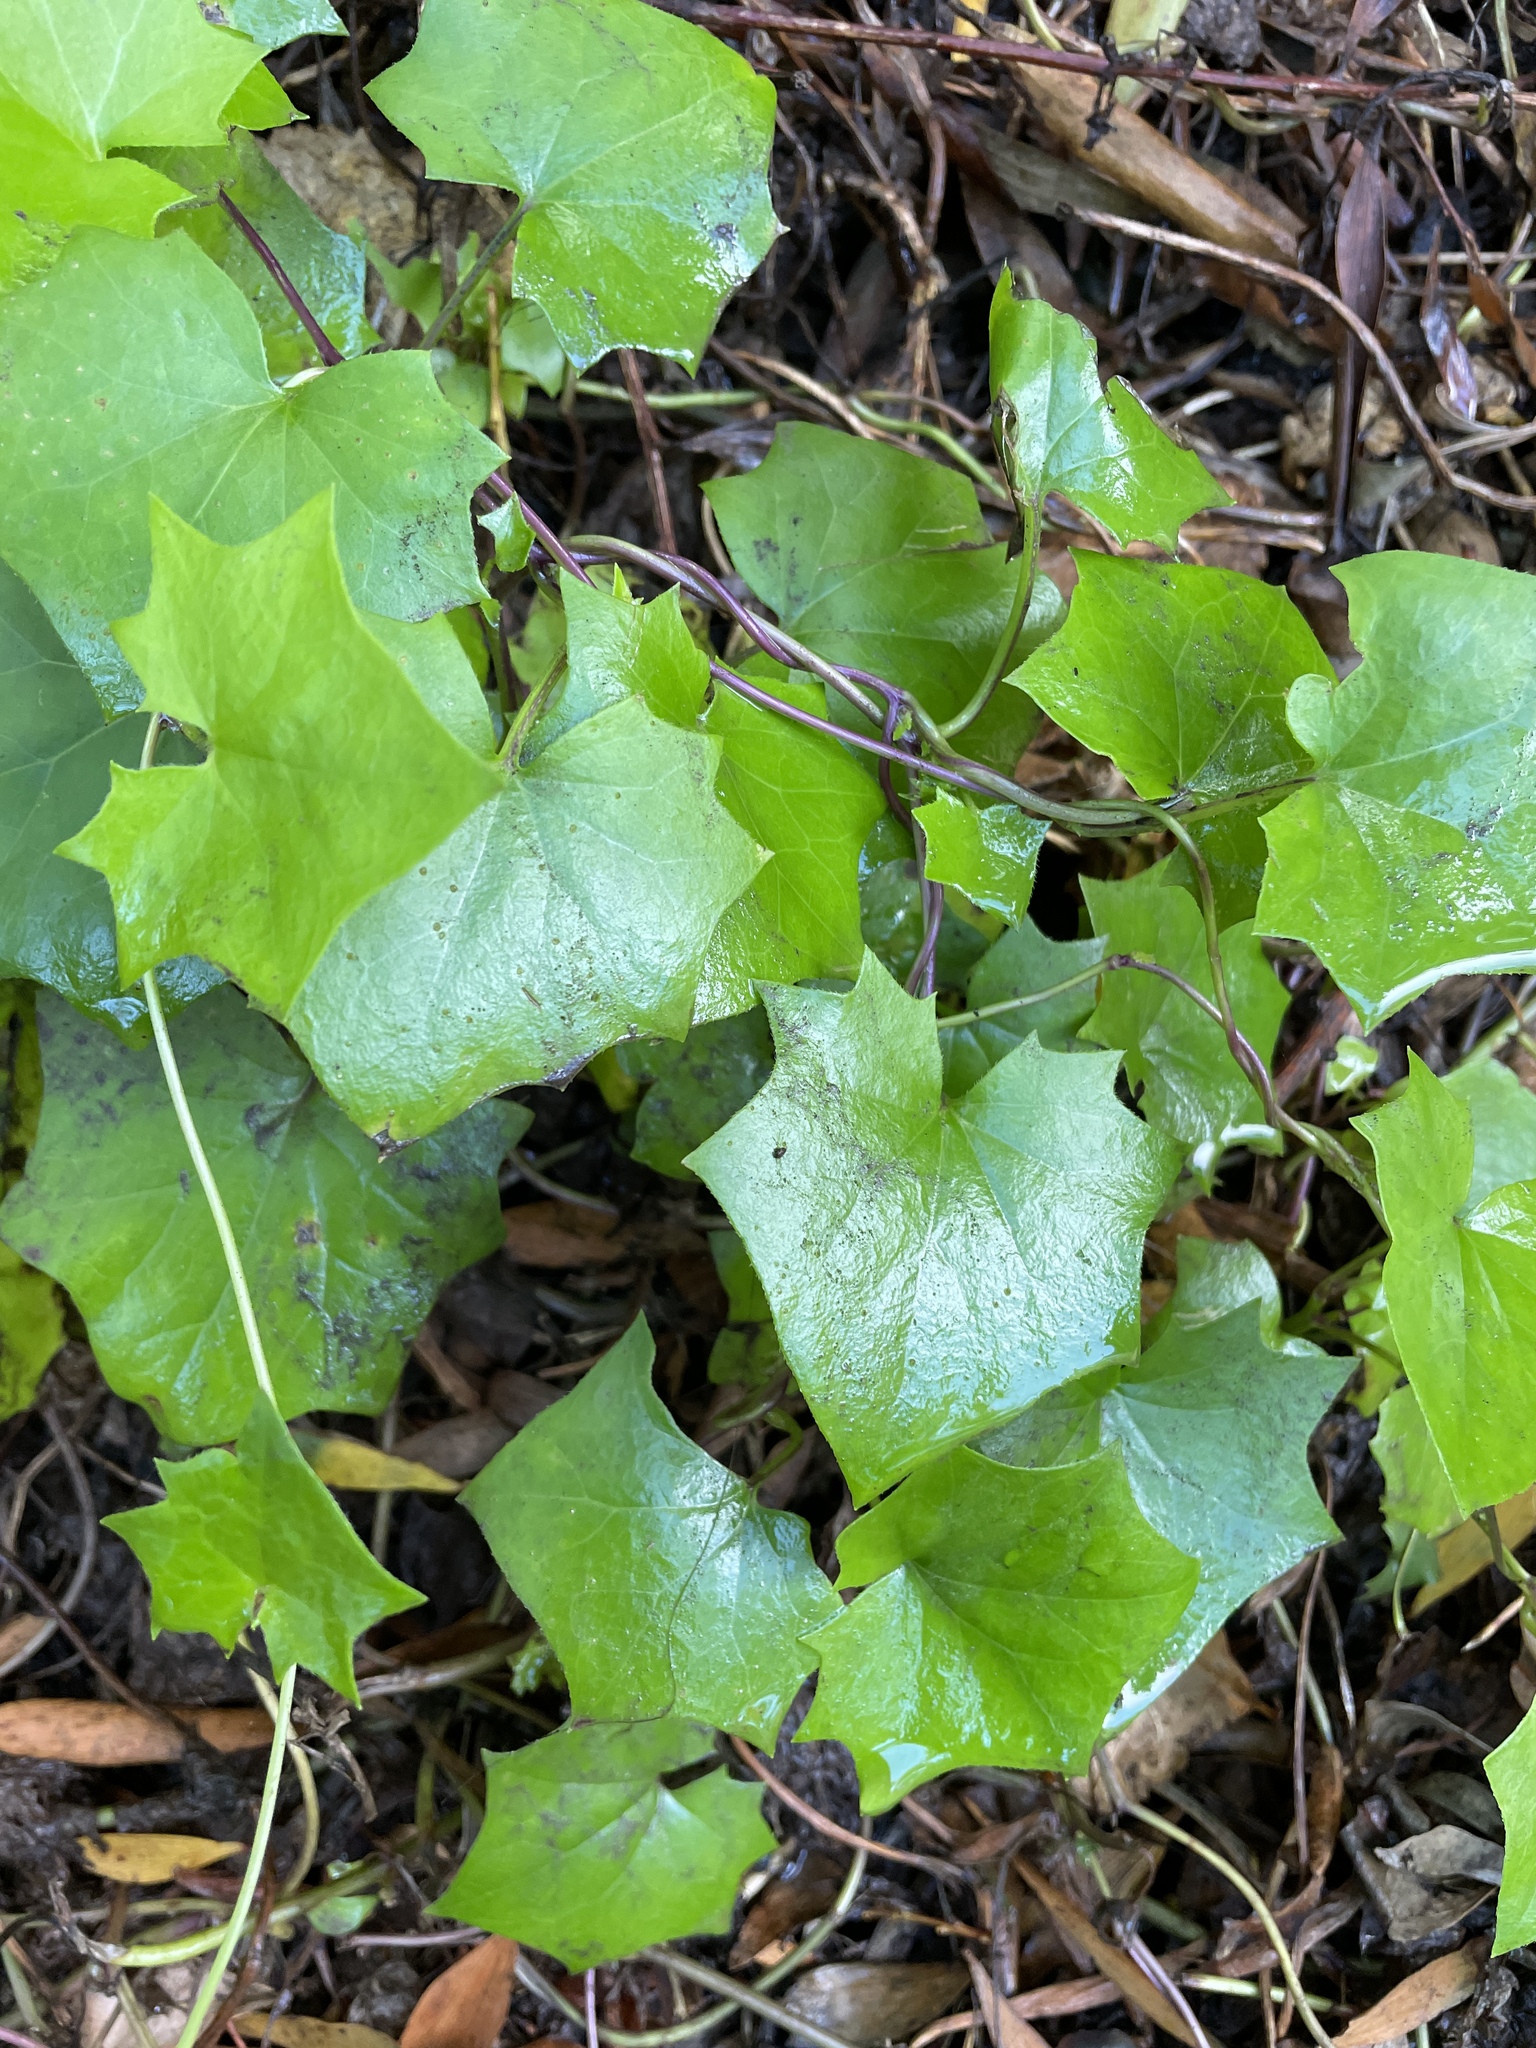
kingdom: Plantae
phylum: Tracheophyta
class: Magnoliopsida
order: Asterales
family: Asteraceae
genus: Delairea
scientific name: Delairea odorata
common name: Cape-ivy
